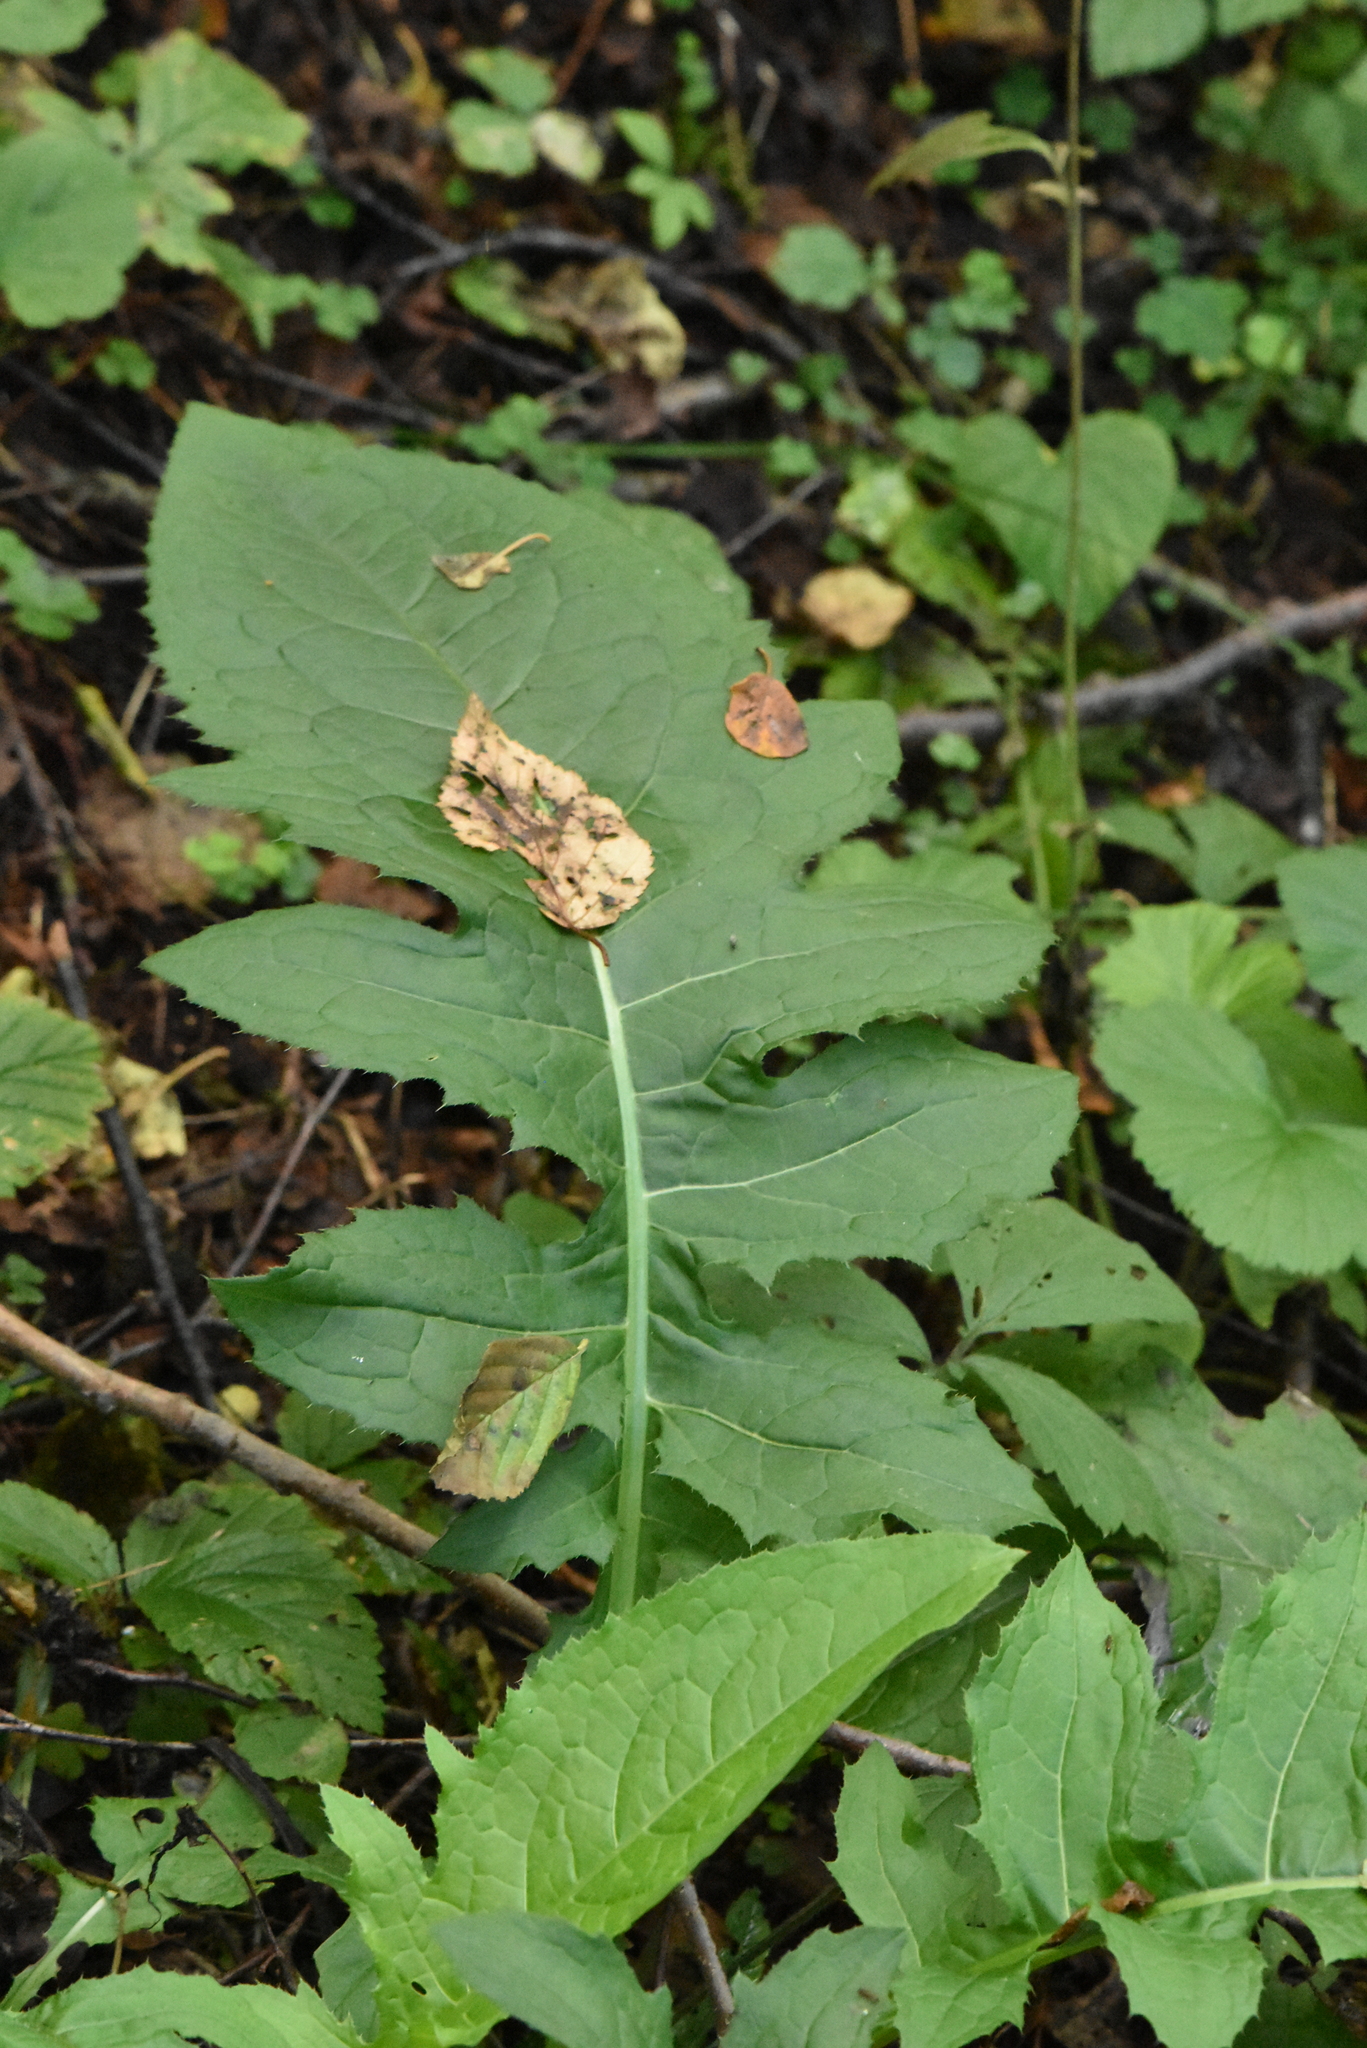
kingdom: Plantae
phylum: Tracheophyta
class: Magnoliopsida
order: Asterales
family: Asteraceae
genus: Cirsium
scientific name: Cirsium oleraceum
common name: Cabbage thistle
